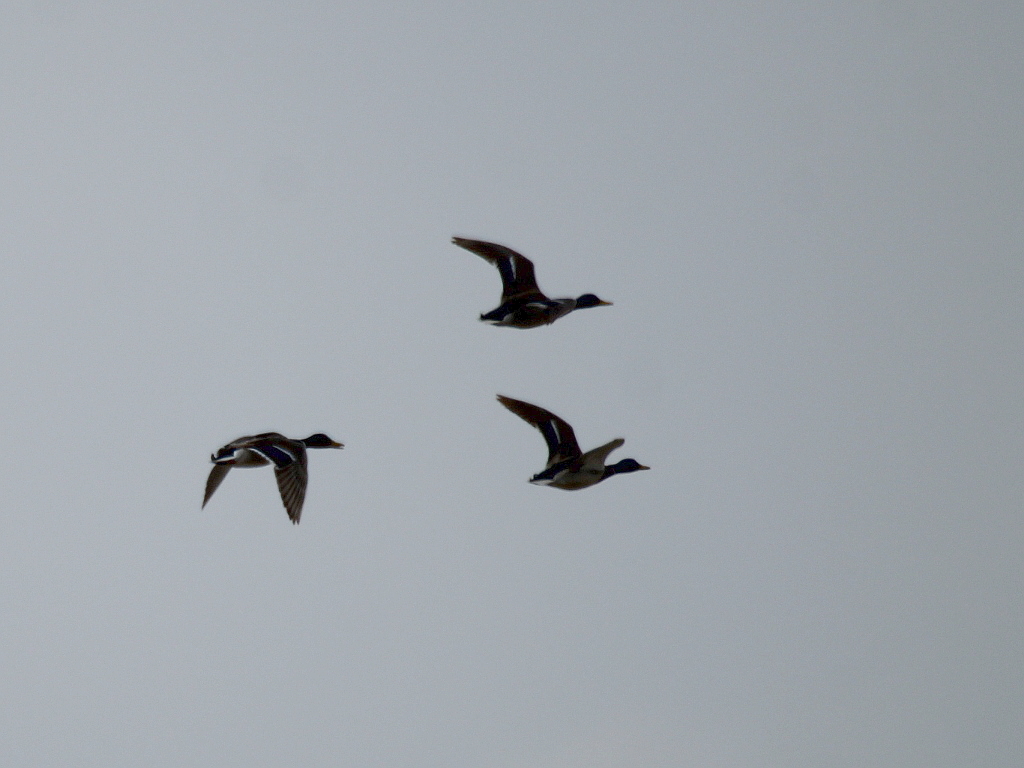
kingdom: Animalia
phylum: Chordata
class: Aves
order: Anseriformes
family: Anatidae
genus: Anas
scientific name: Anas platyrhynchos
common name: Mallard
